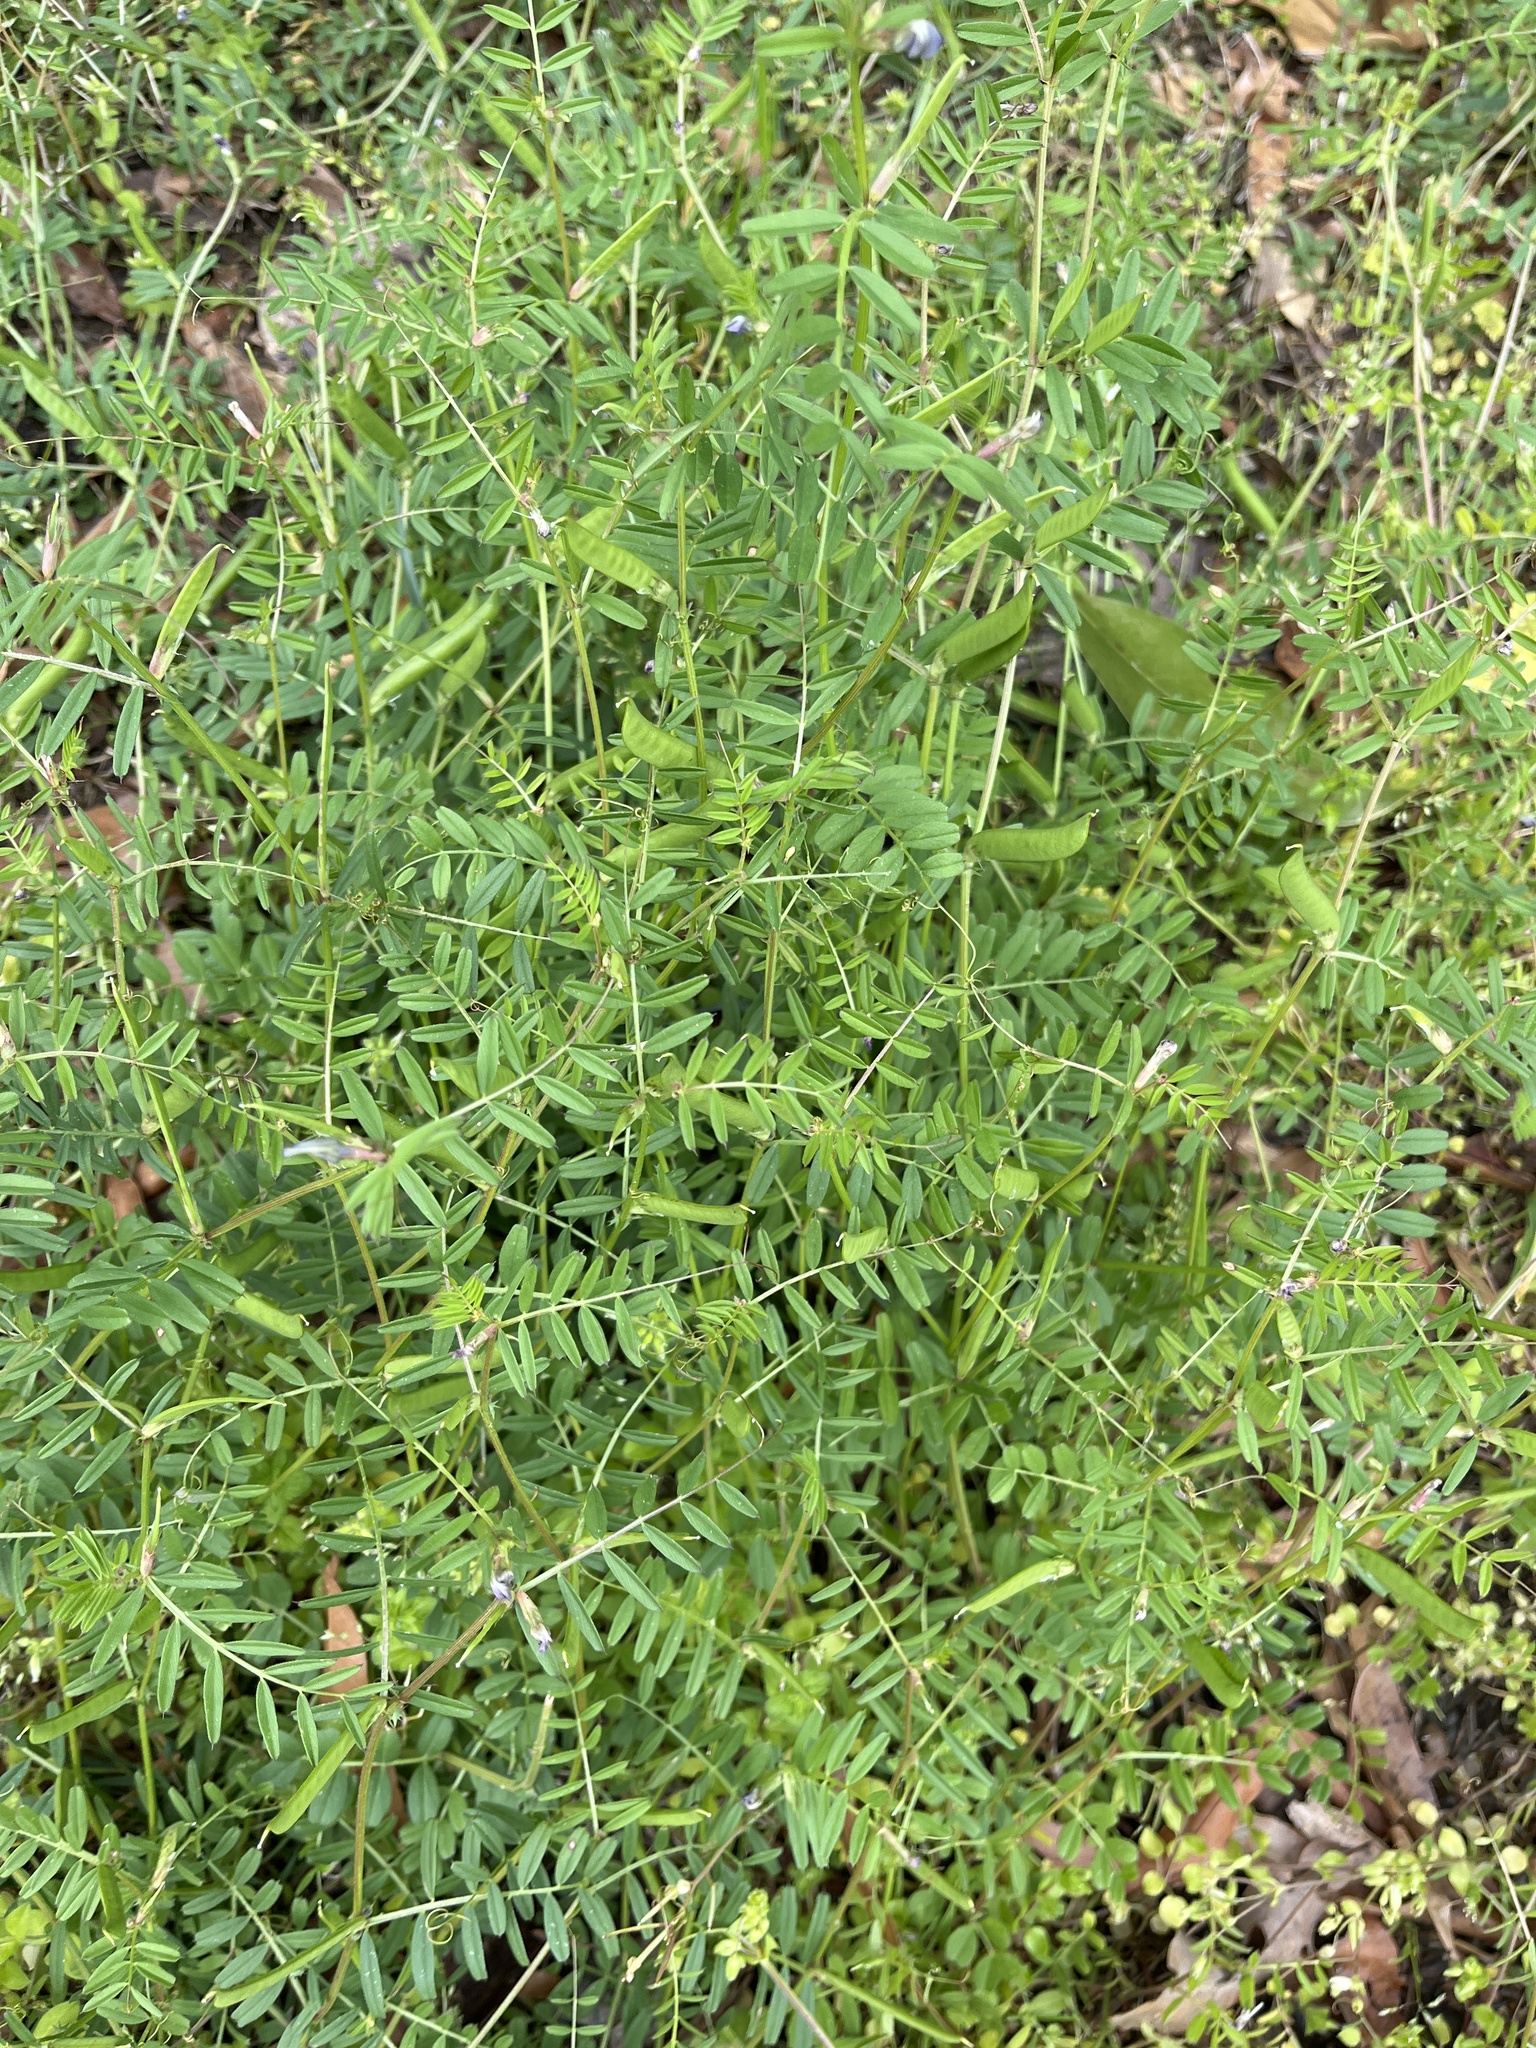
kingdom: Plantae
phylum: Tracheophyta
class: Magnoliopsida
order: Fabales
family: Fabaceae
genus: Vicia
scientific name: Vicia sativa
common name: Garden vetch
